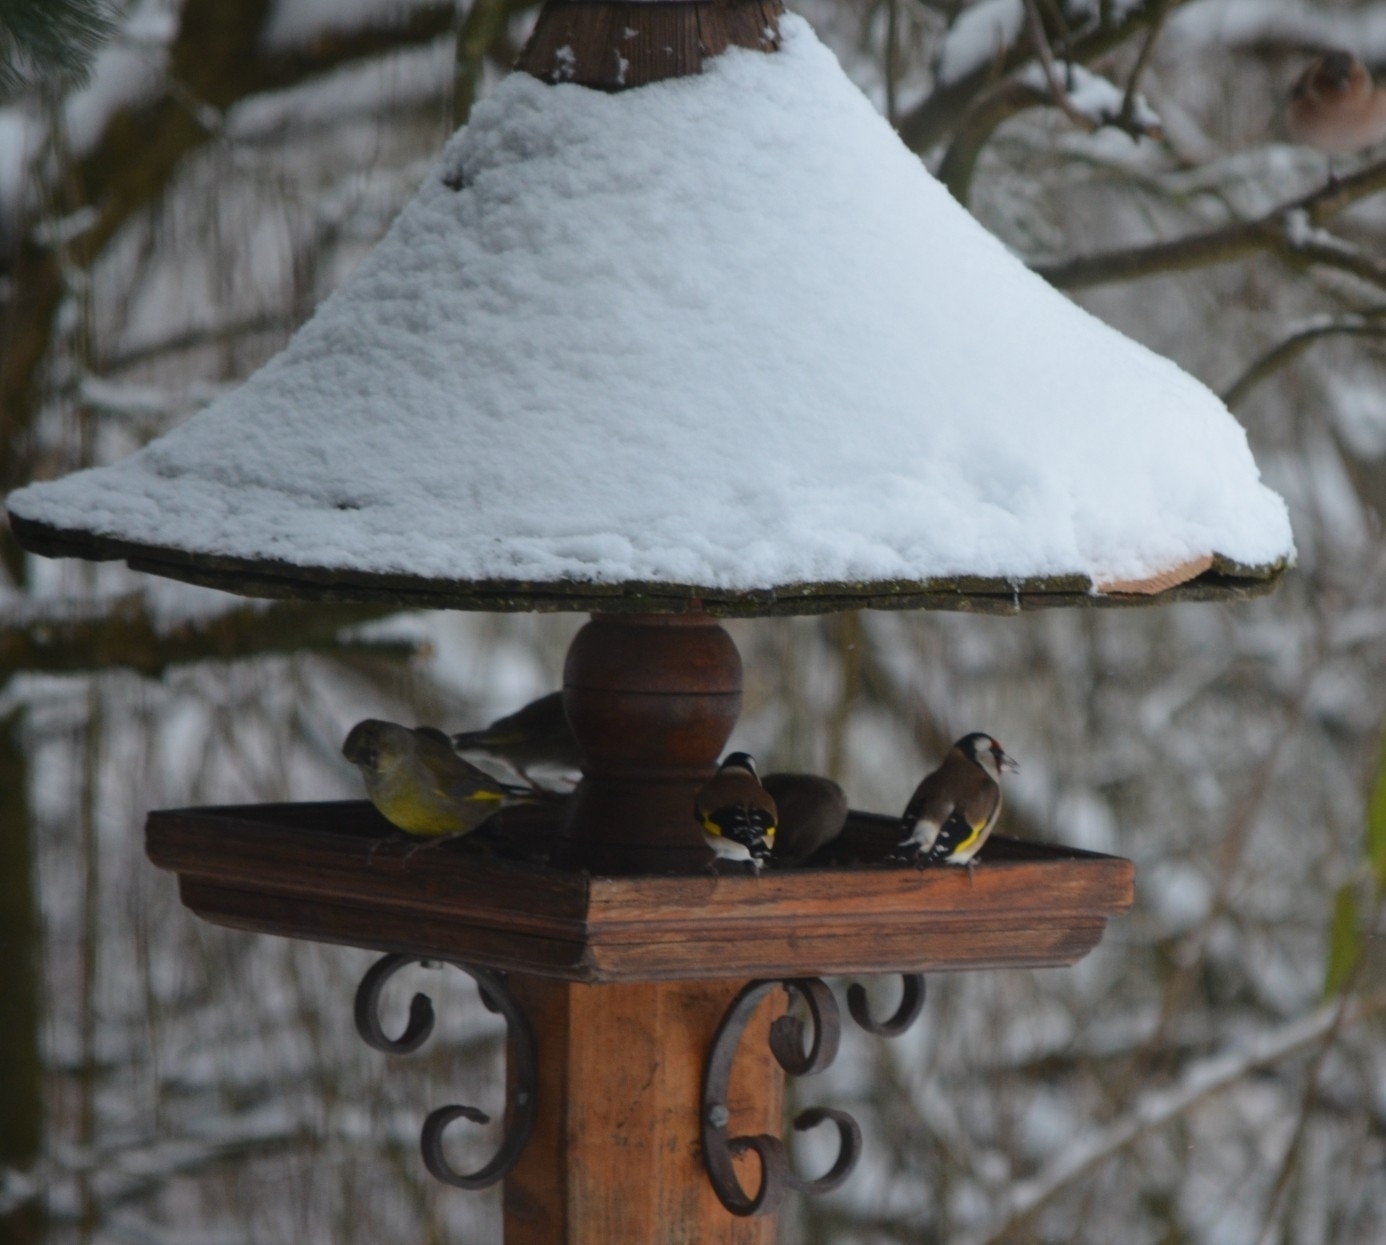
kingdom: Animalia
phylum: Chordata
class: Aves
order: Passeriformes
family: Fringillidae
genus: Carduelis
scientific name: Carduelis carduelis
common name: European goldfinch
